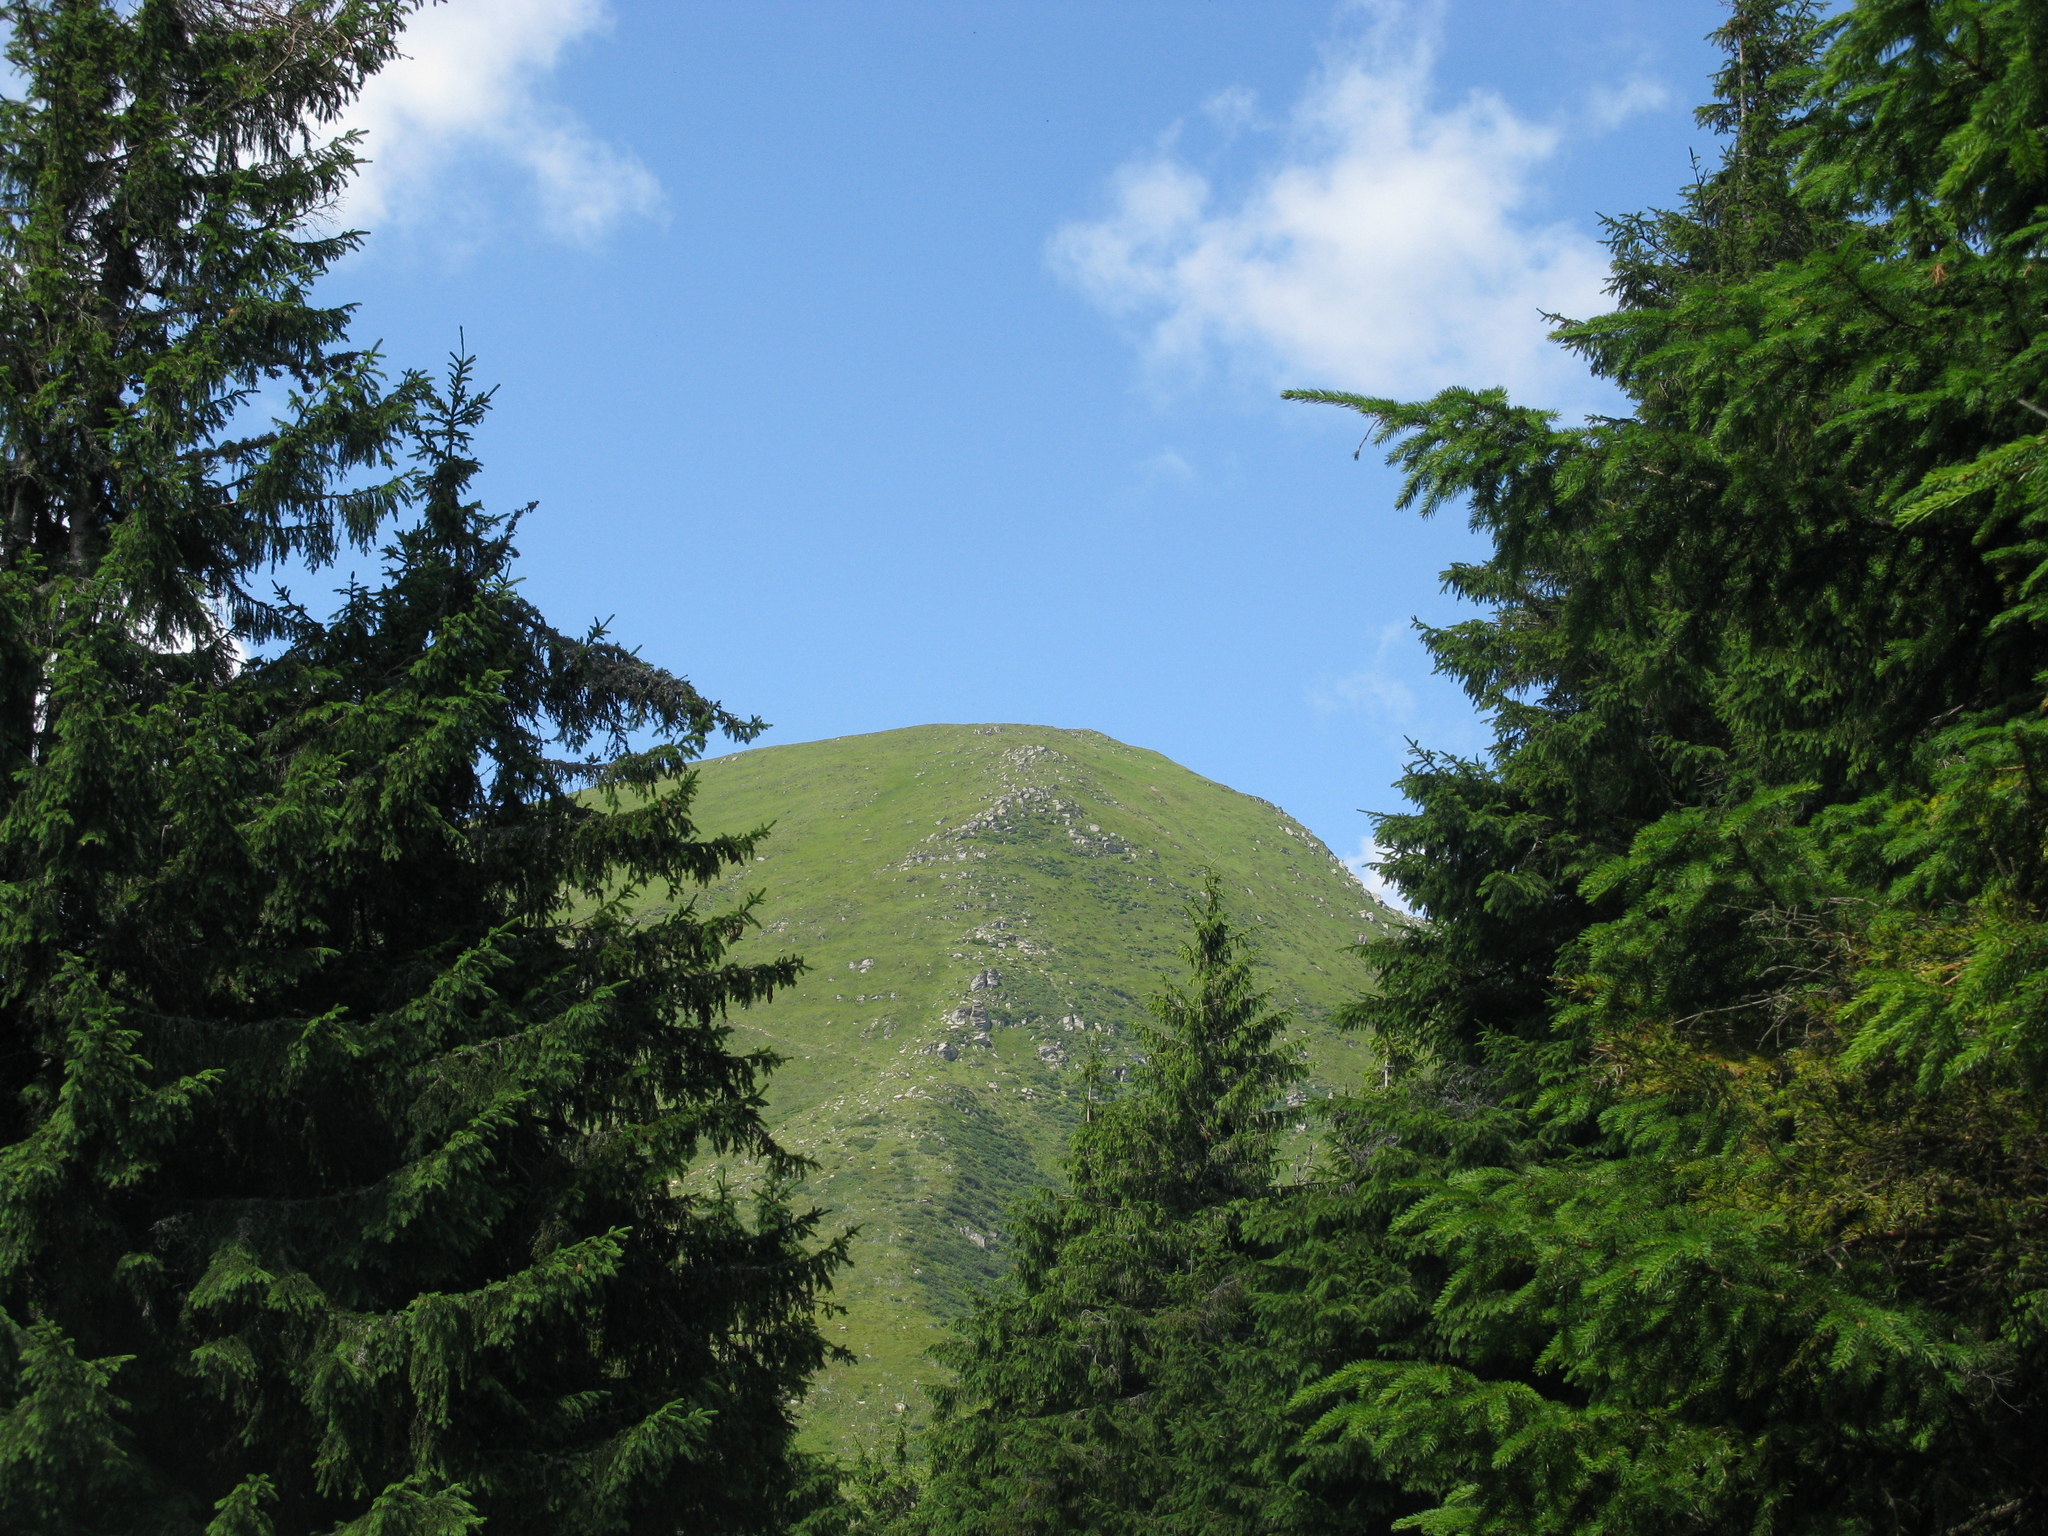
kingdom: Plantae
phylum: Tracheophyta
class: Pinopsida
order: Pinales
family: Pinaceae
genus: Picea
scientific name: Picea abies
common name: Norway spruce
